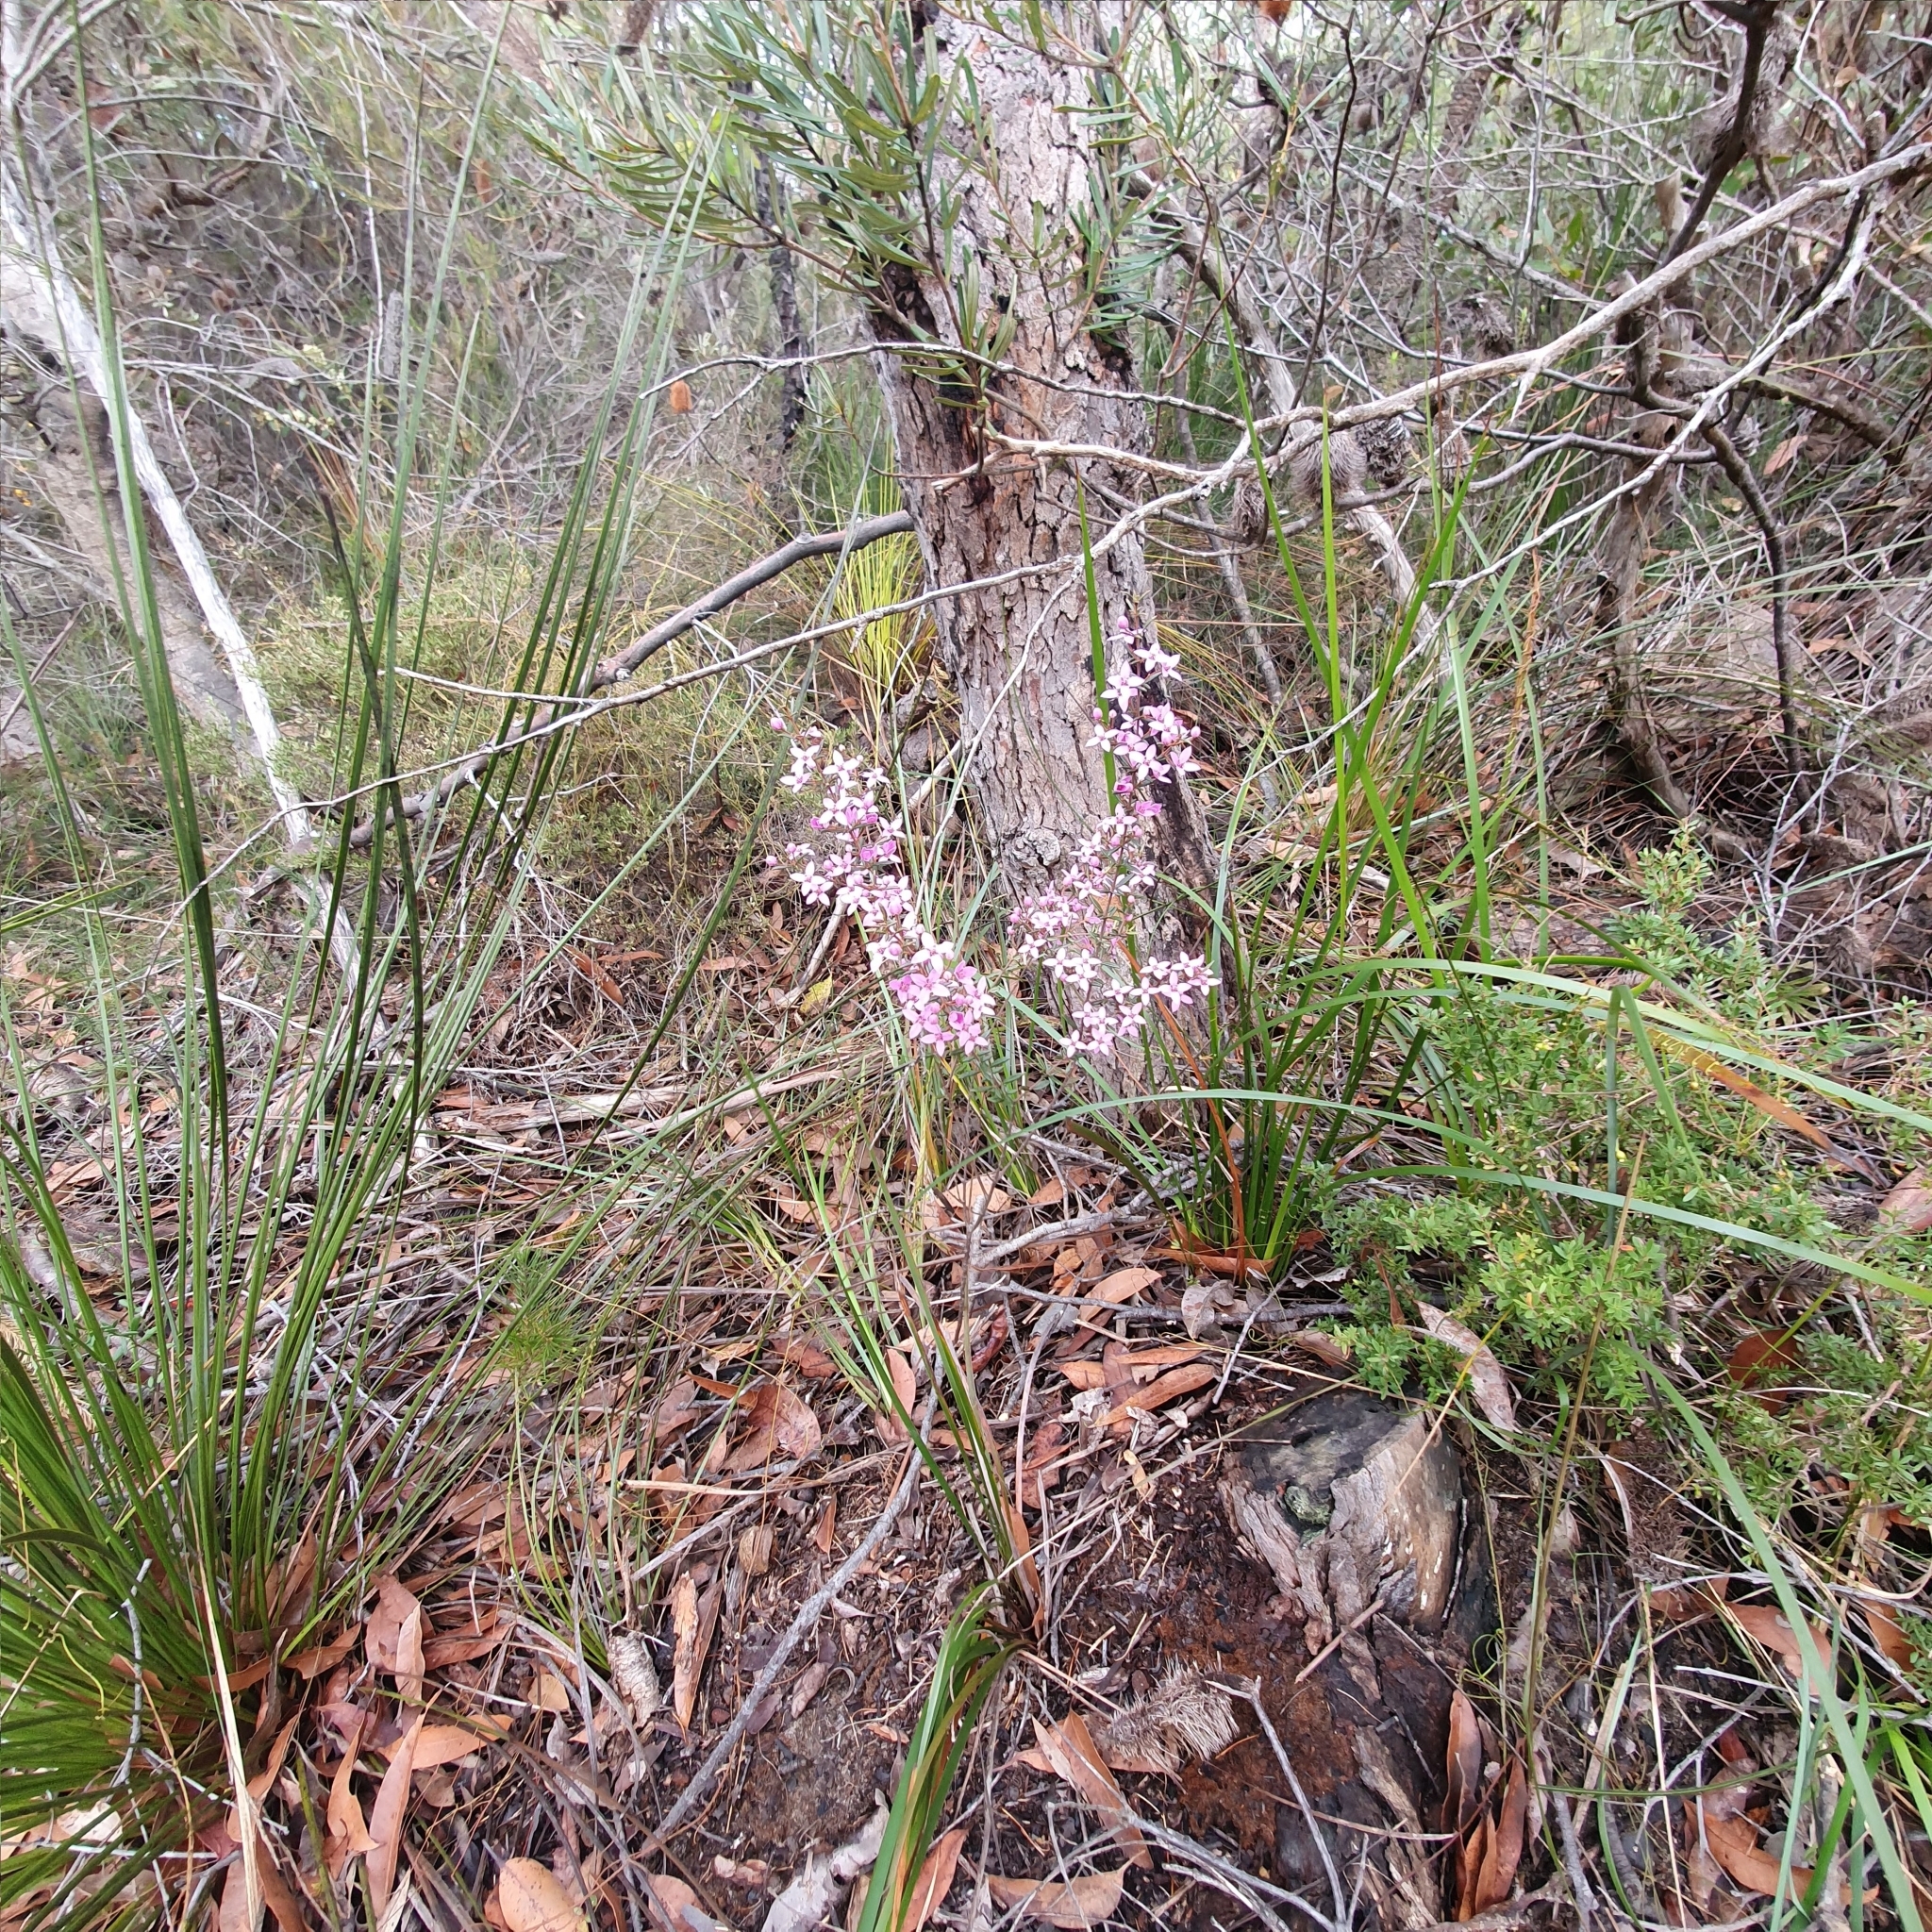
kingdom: Plantae
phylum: Tracheophyta
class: Magnoliopsida
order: Sapindales
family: Rutaceae
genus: Boronia
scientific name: Boronia ledifolia
